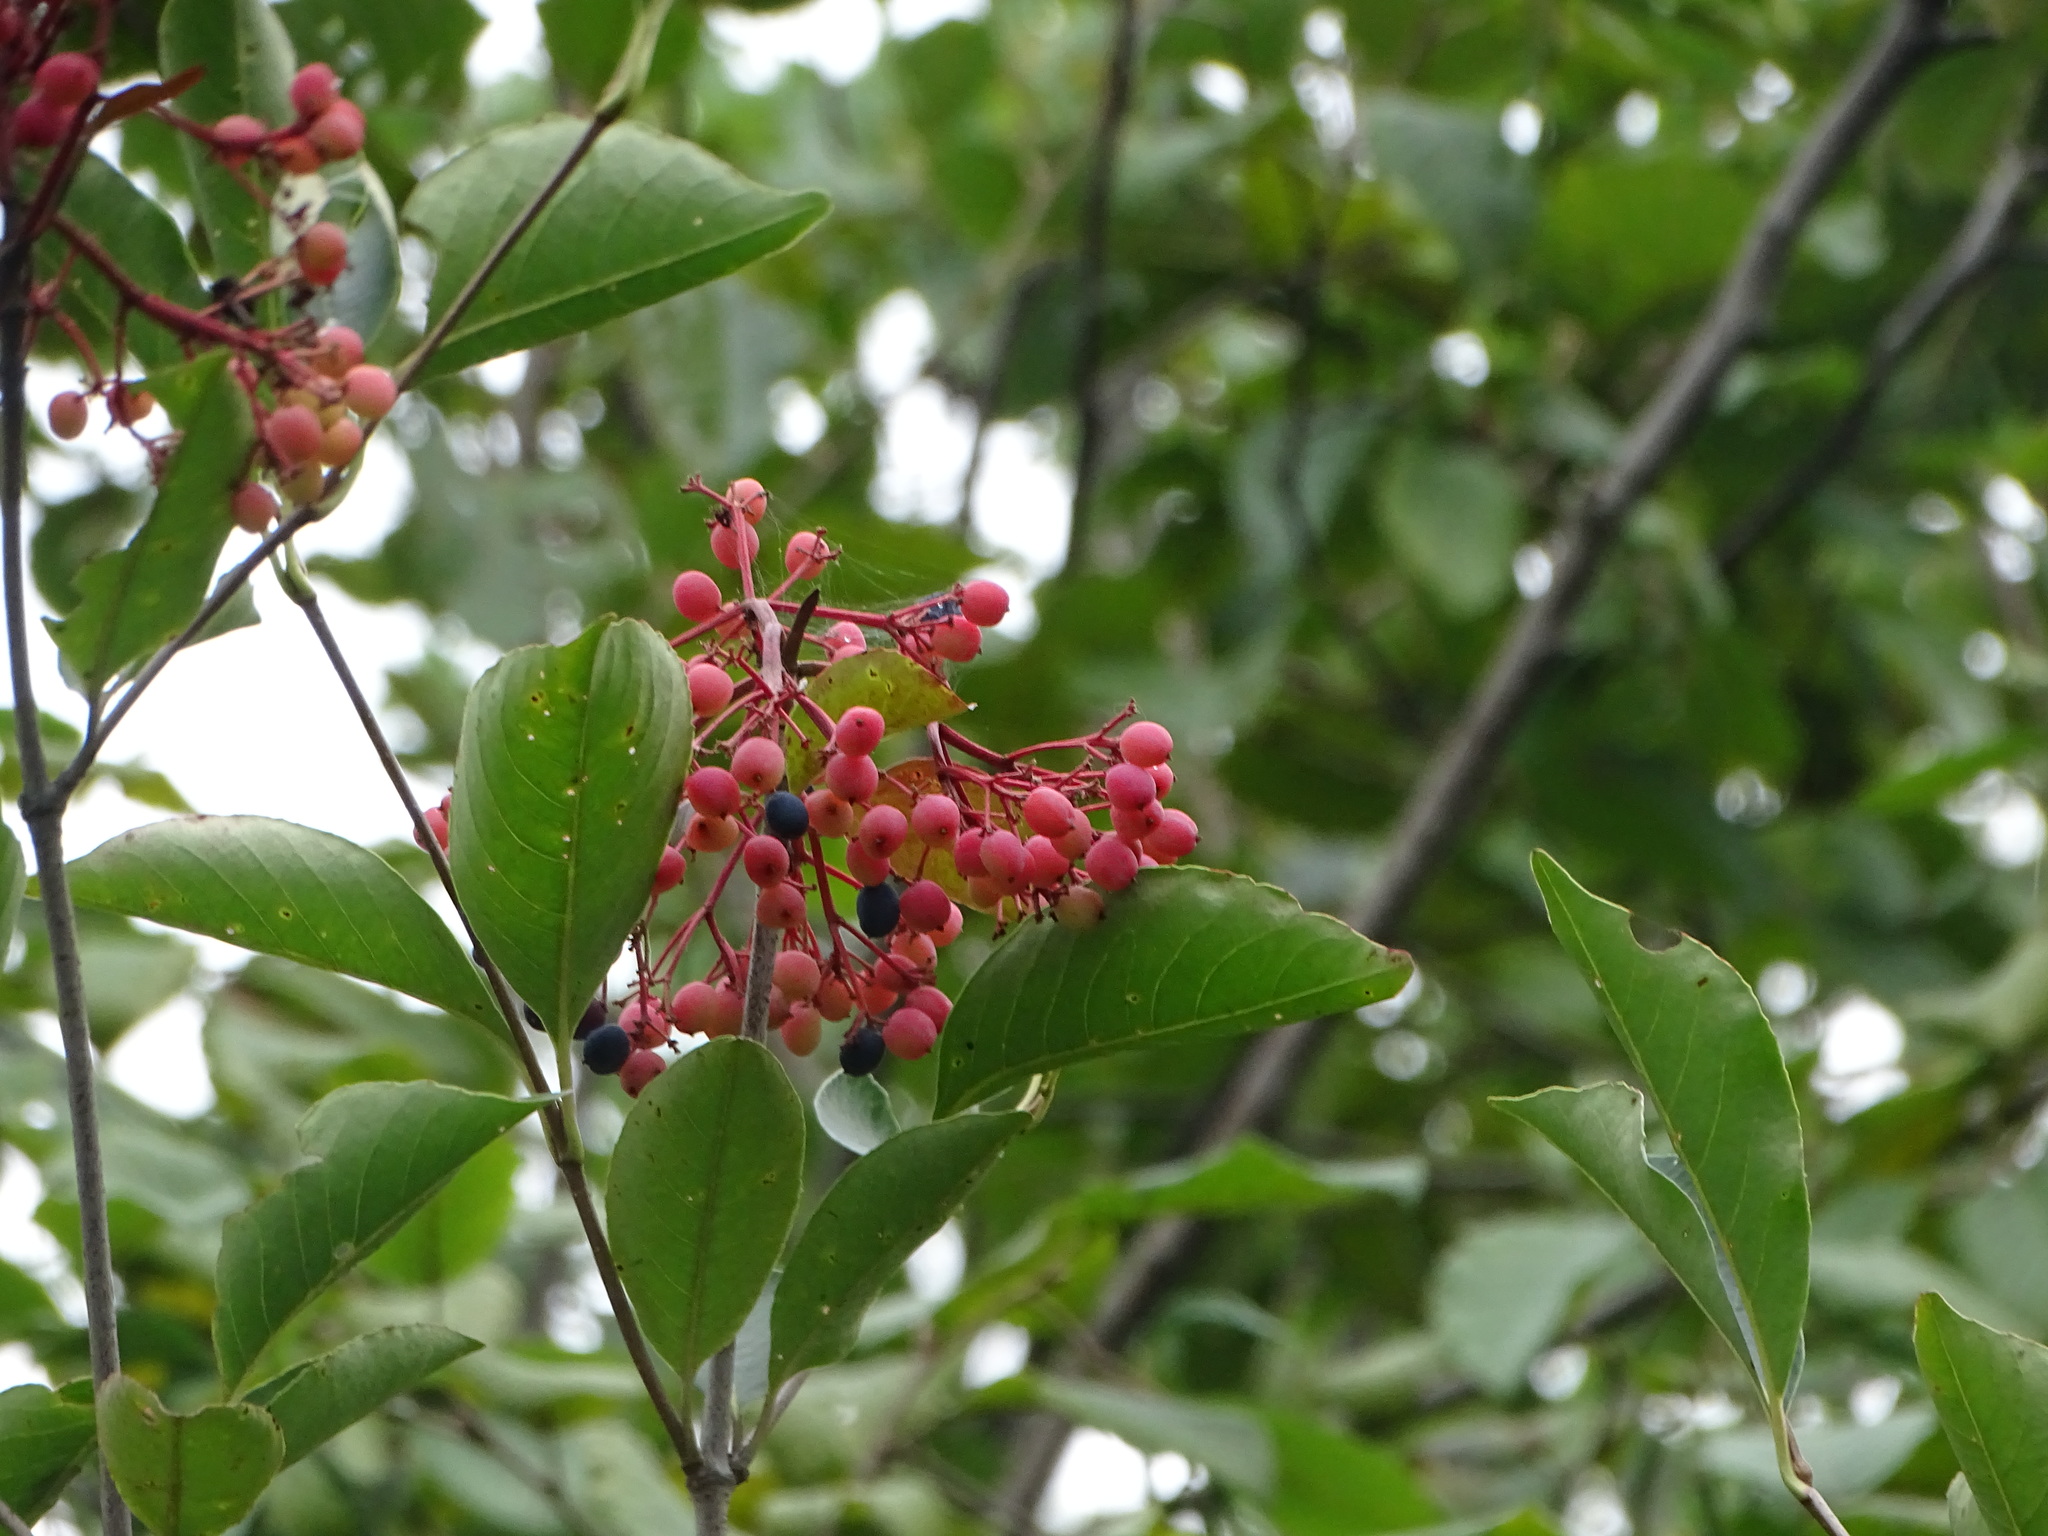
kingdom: Plantae
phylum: Tracheophyta
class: Magnoliopsida
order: Dipsacales
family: Viburnaceae
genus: Viburnum
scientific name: Viburnum cassinoides
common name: Swamp haw
